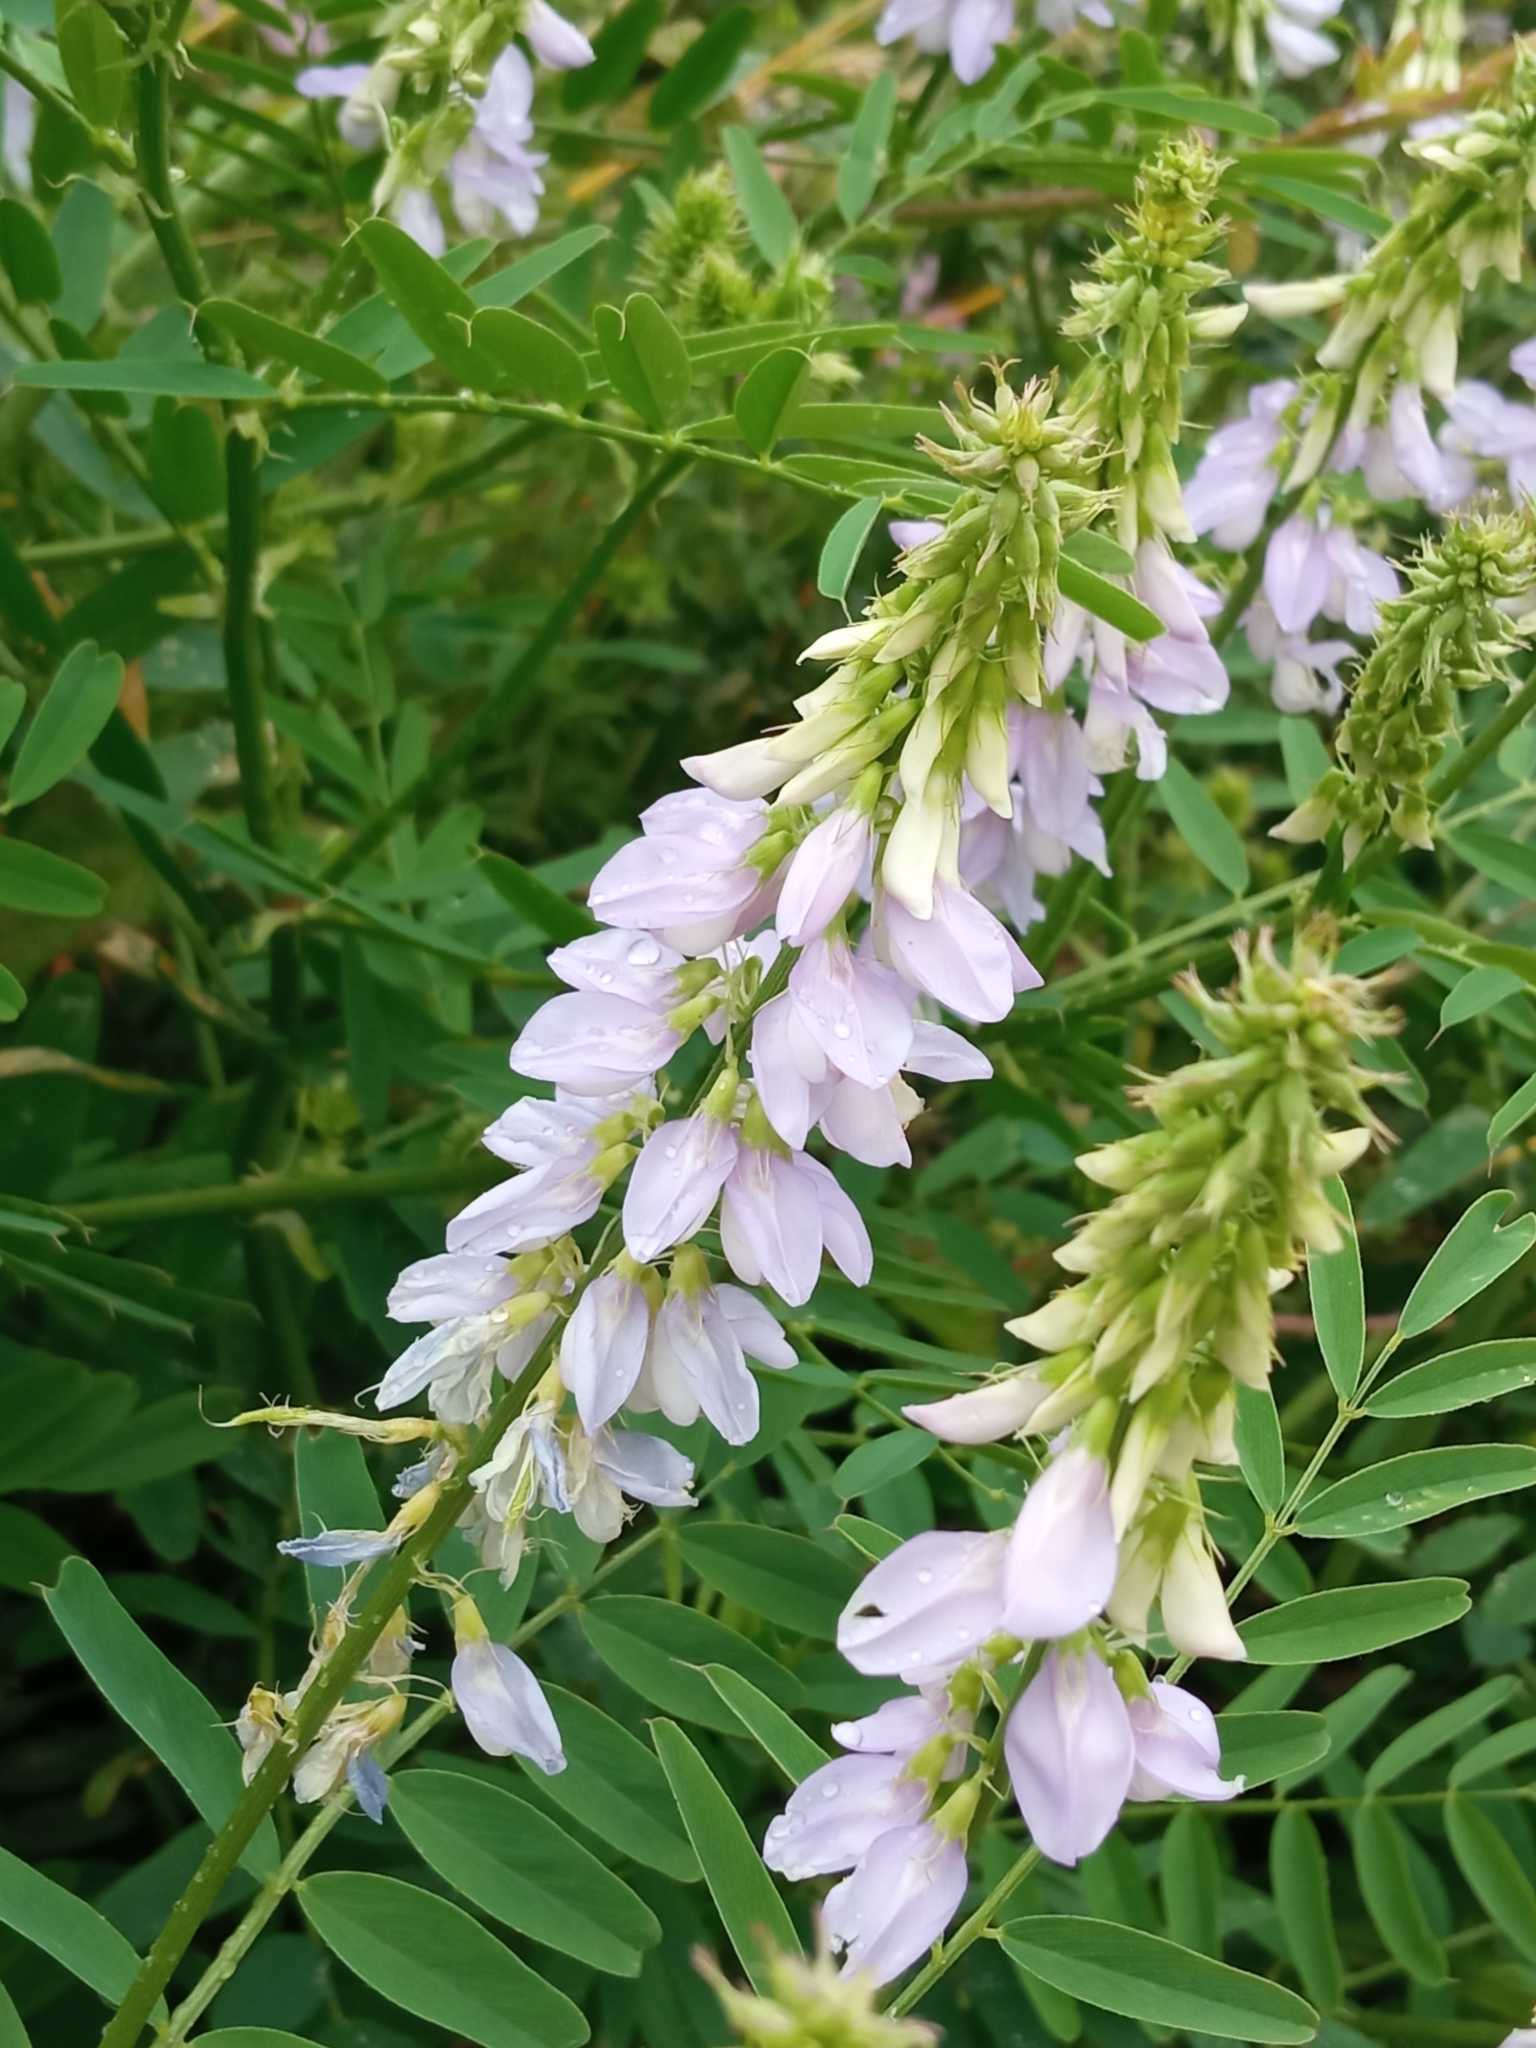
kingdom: Plantae
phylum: Tracheophyta
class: Magnoliopsida
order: Fabales
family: Fabaceae
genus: Galega
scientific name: Galega officinalis
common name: Goat's-rue
